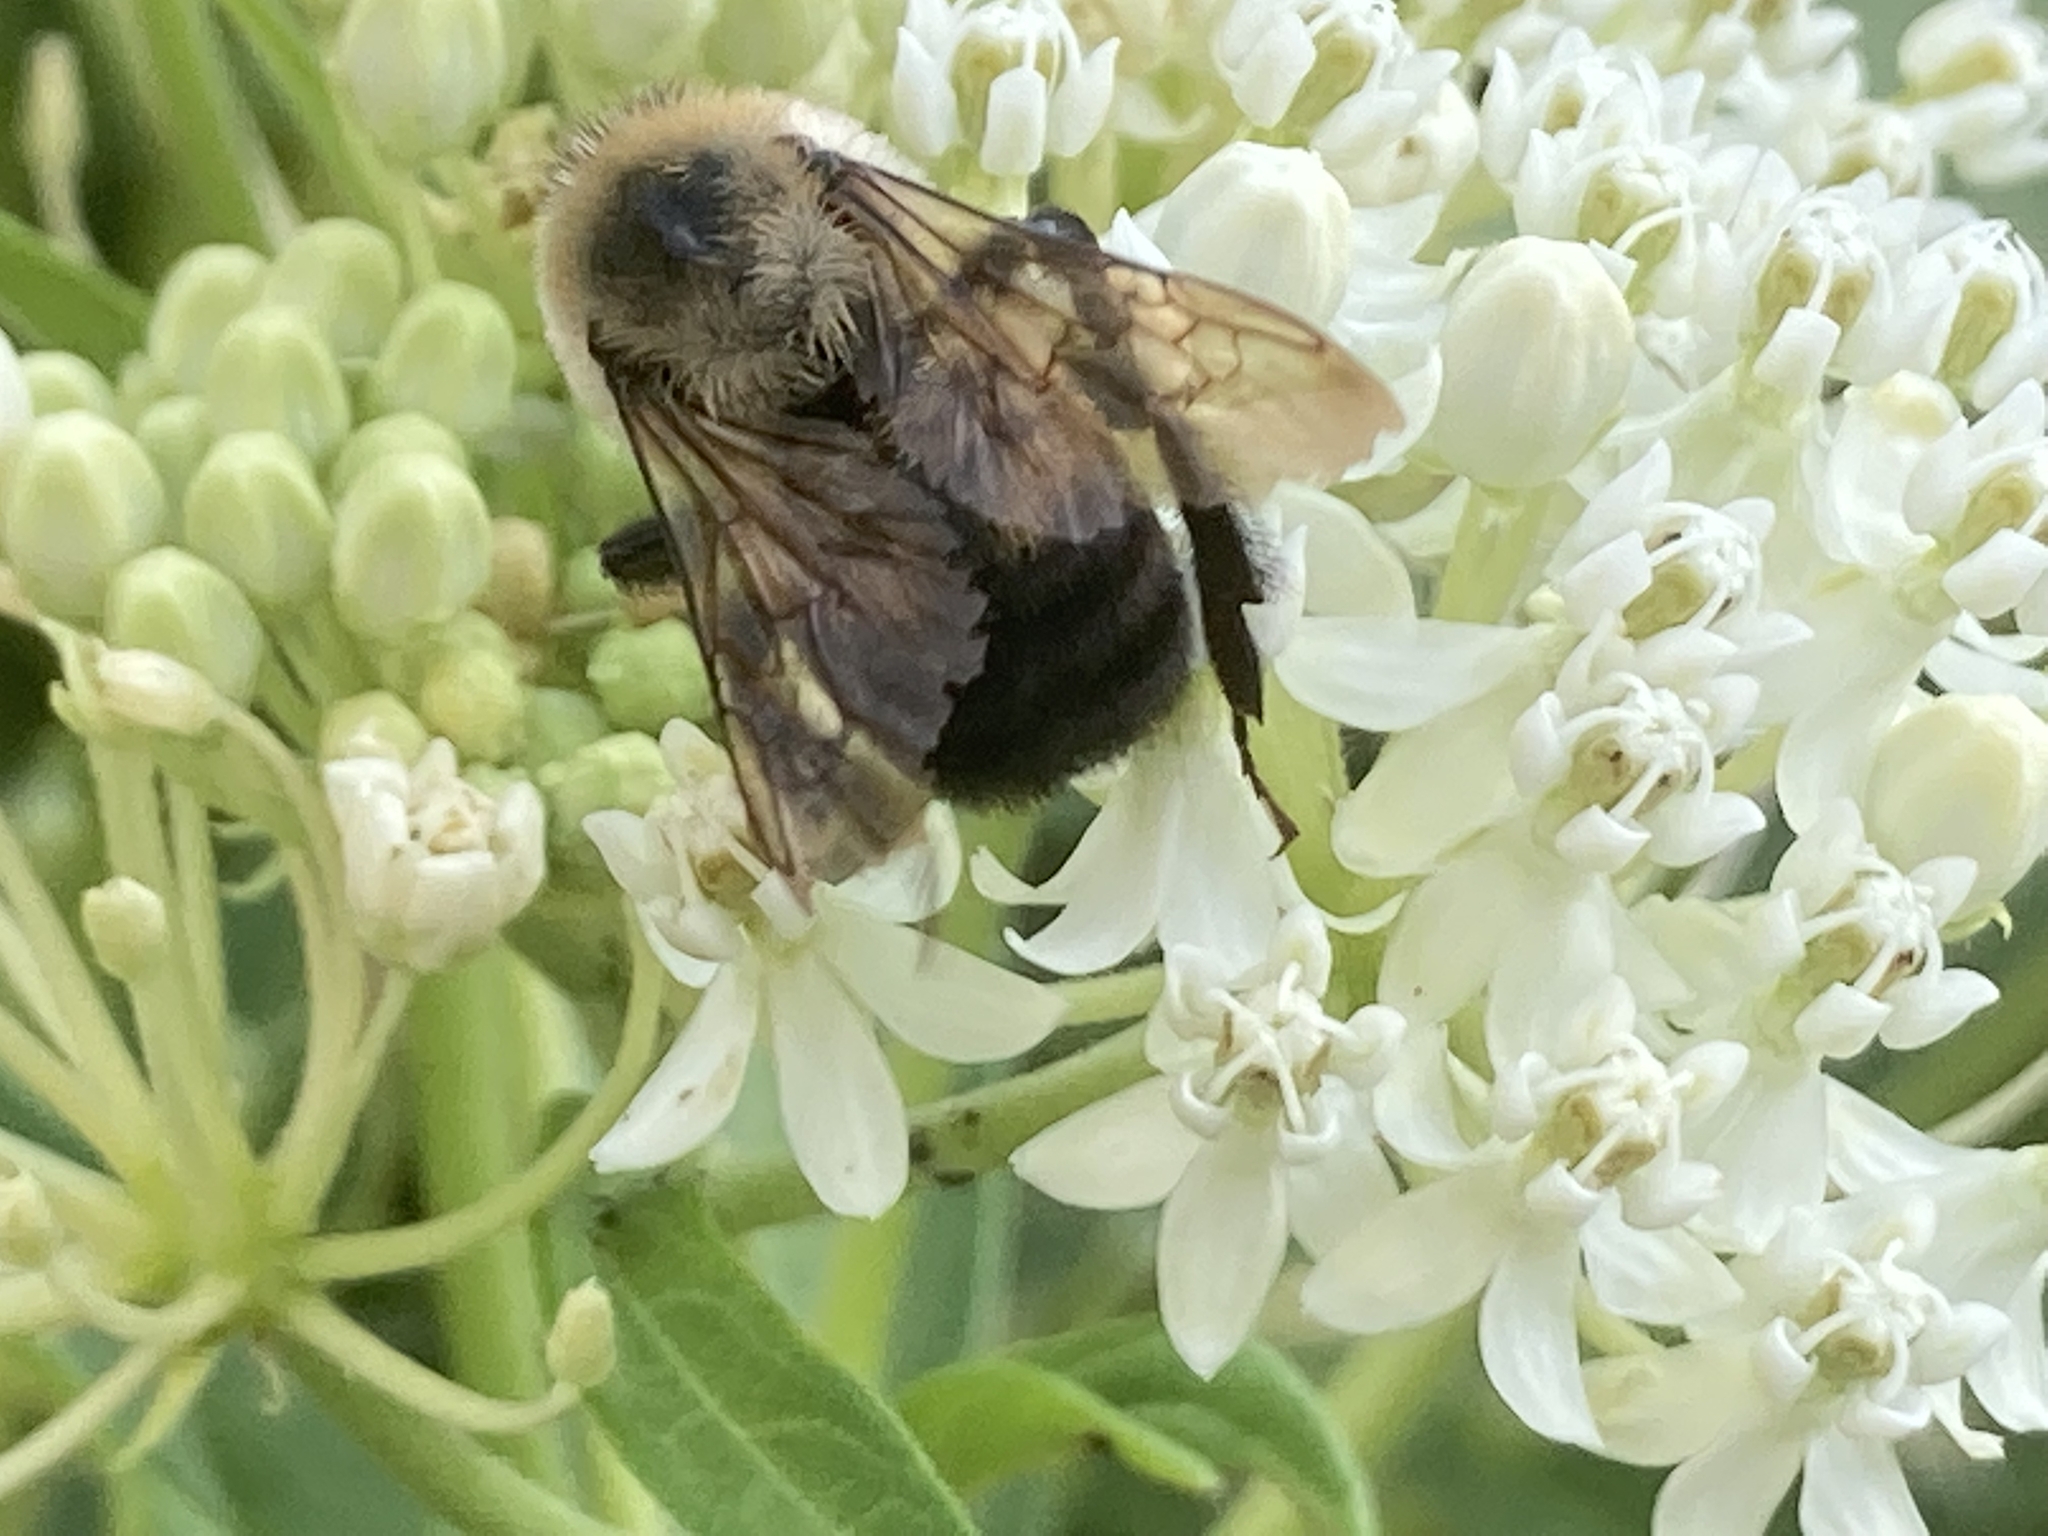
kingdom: Animalia
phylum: Arthropoda
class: Insecta
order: Hymenoptera
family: Apidae
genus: Bombus
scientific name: Bombus griseocollis
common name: Brown-belted bumble bee
